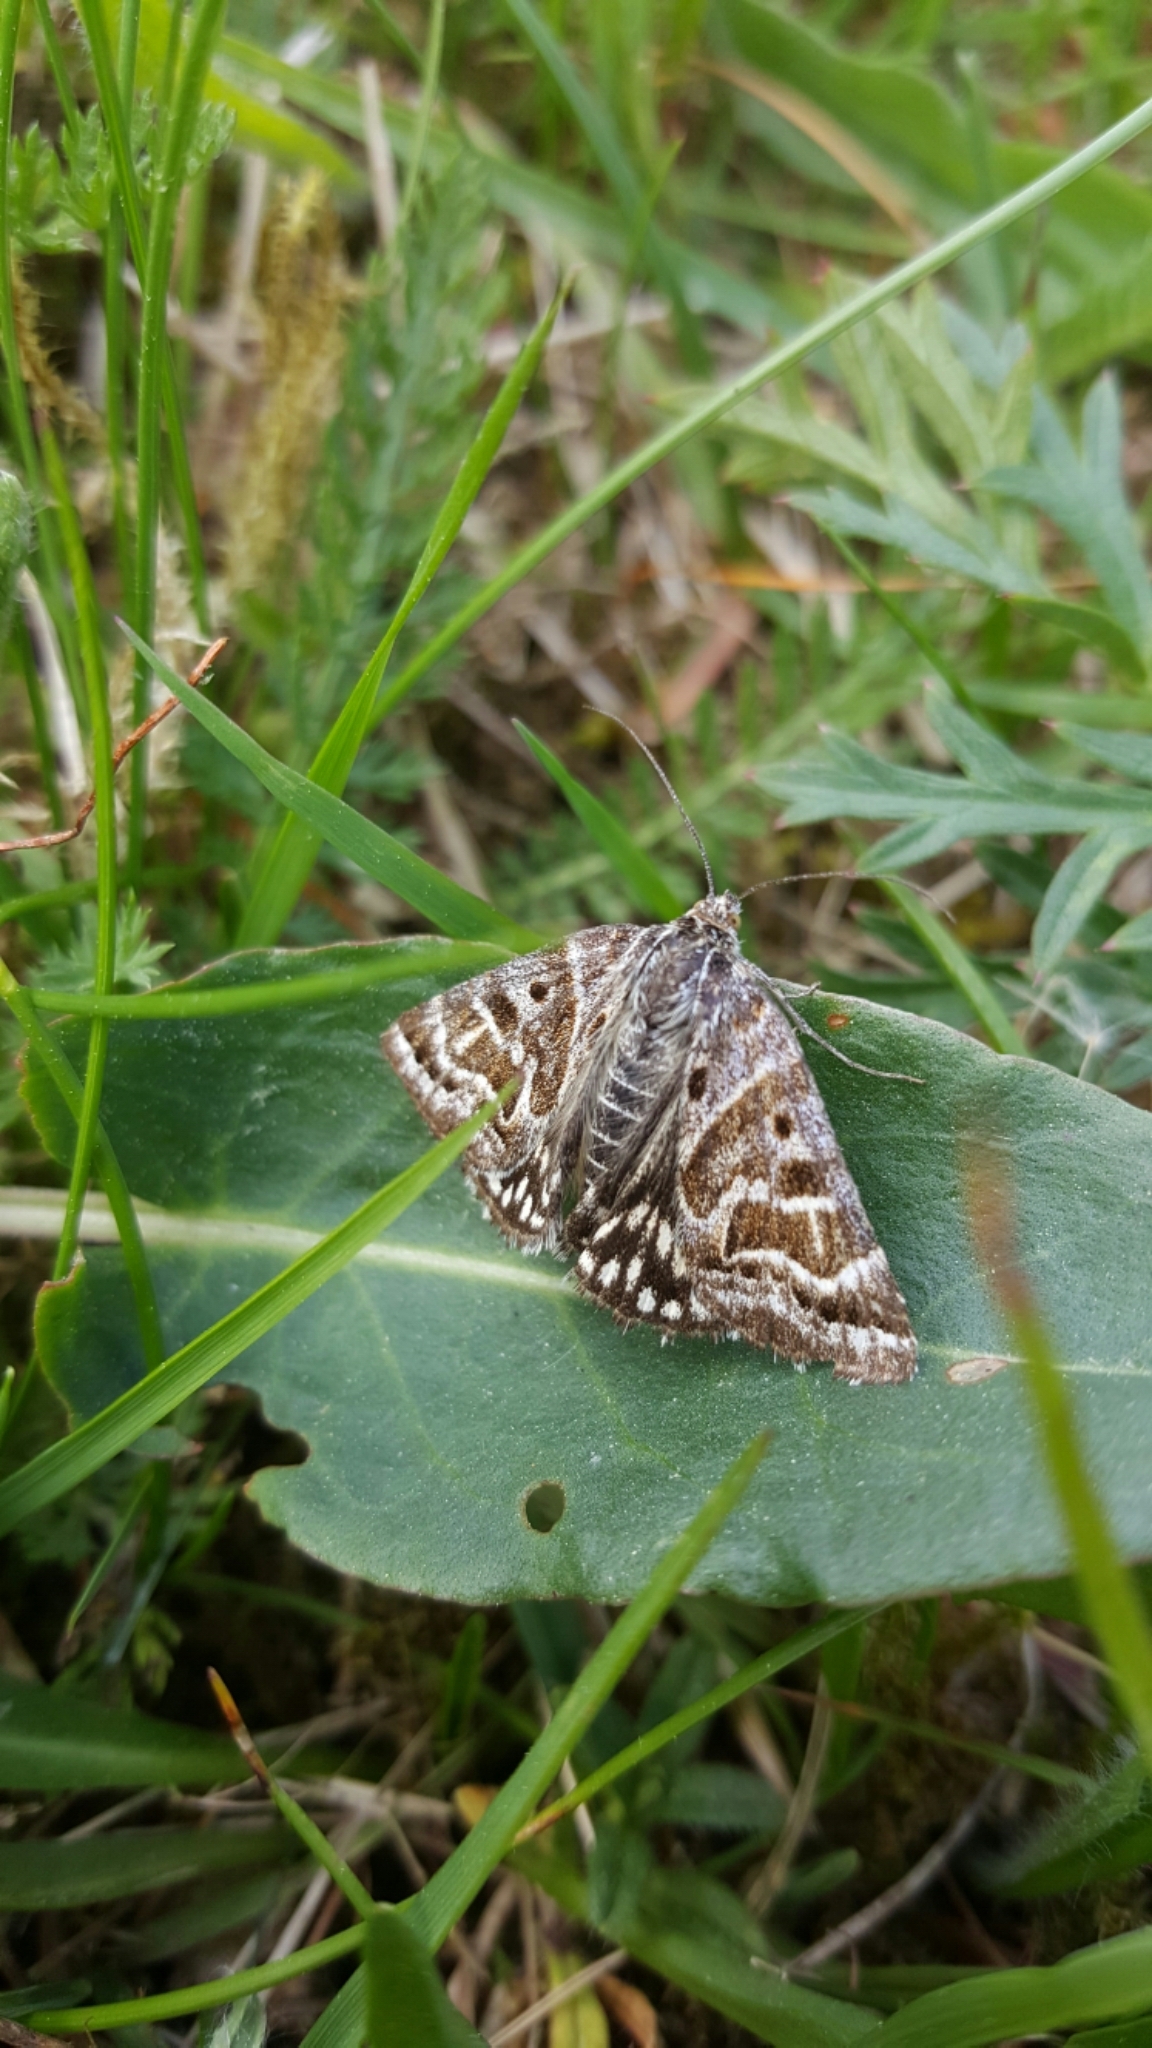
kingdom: Animalia
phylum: Arthropoda
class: Insecta
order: Lepidoptera
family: Erebidae
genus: Callistege
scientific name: Callistege mi
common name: Mother shipton
